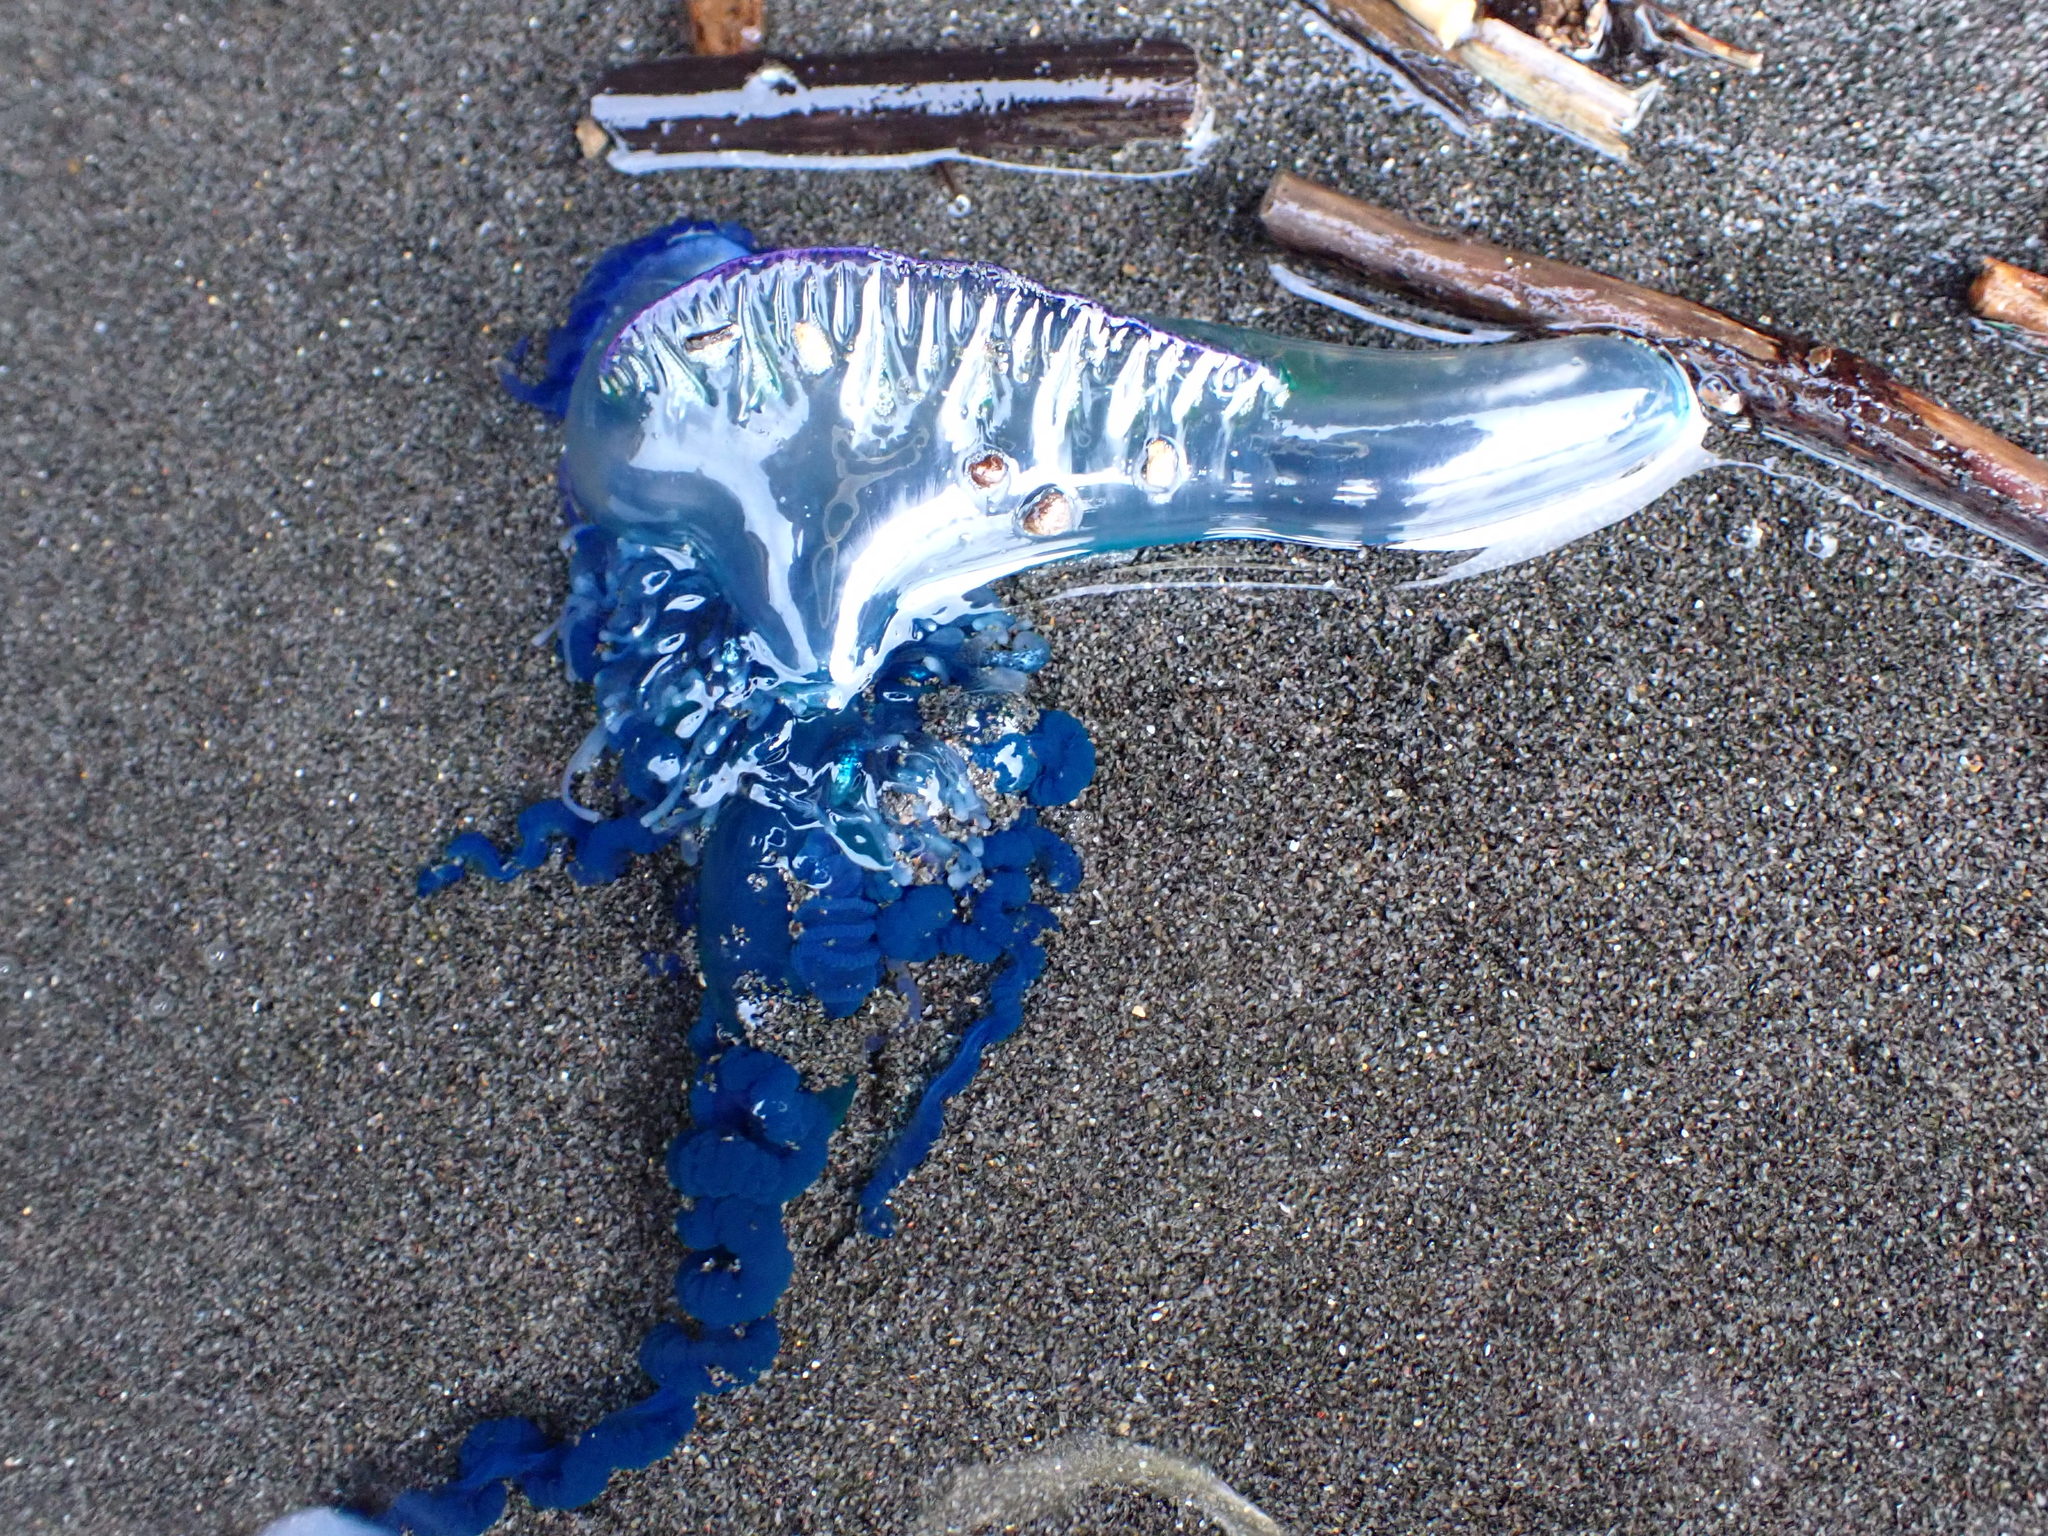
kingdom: Animalia
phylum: Cnidaria
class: Hydrozoa
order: Siphonophorae
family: Physaliidae
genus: Physalia
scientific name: Physalia physalis
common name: Portuguese man-of-war
